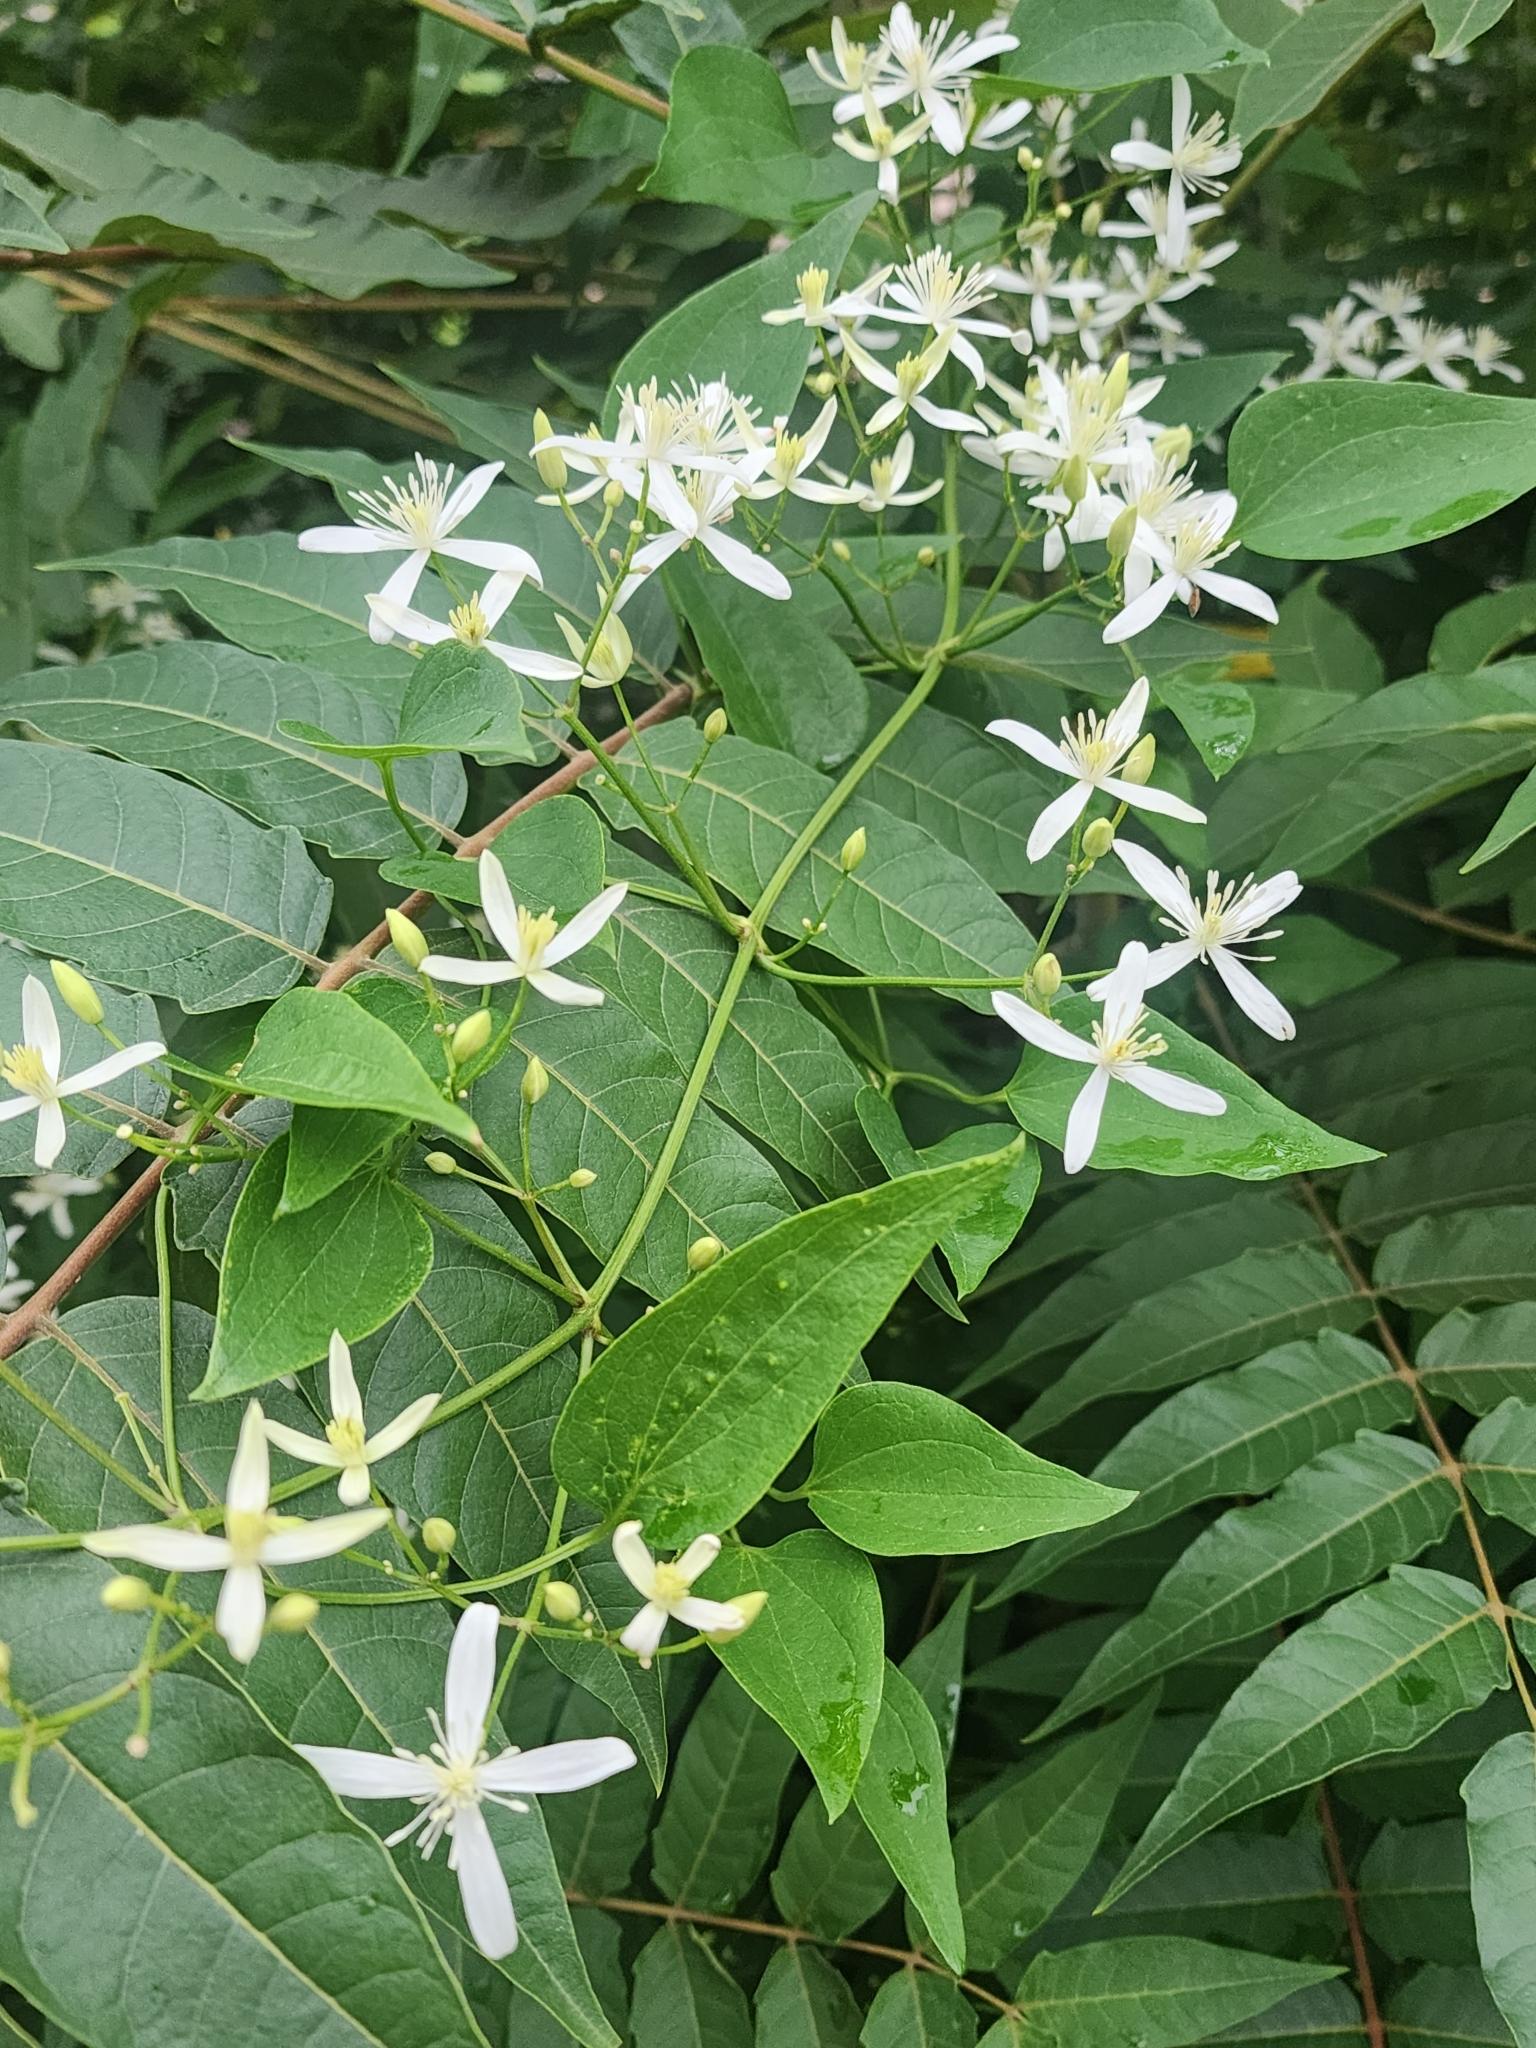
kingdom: Plantae
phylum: Tracheophyta
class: Magnoliopsida
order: Ranunculales
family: Ranunculaceae
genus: Clematis
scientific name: Clematis terniflora
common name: Sweet autumn clematis
